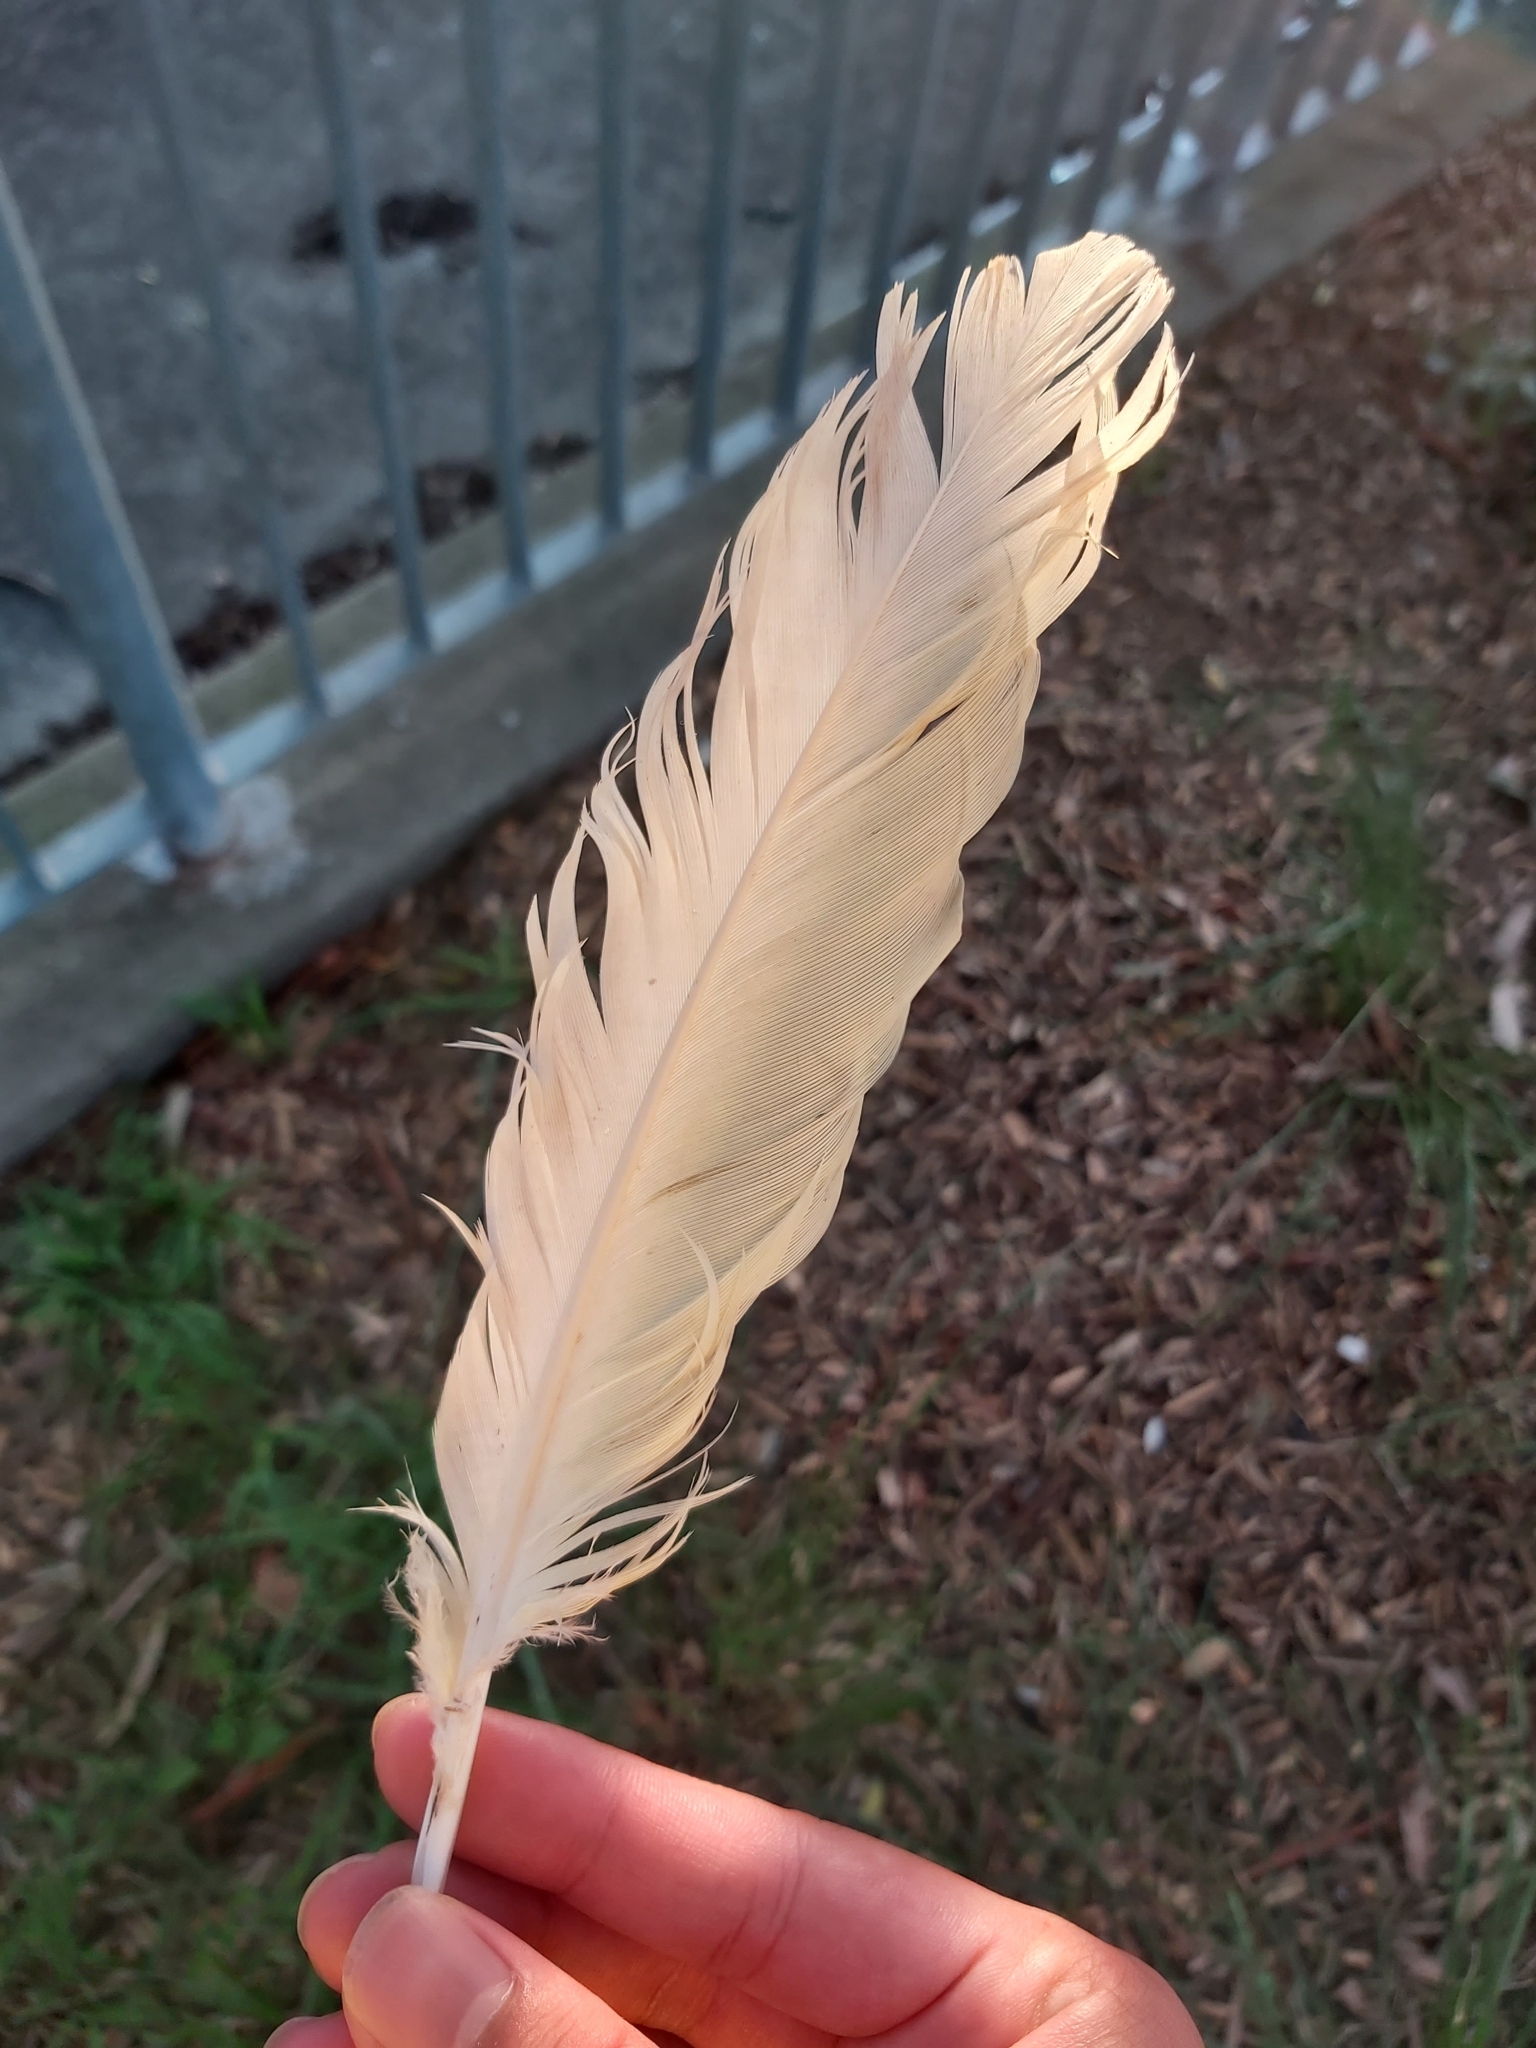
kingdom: Animalia
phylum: Chordata
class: Aves
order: Psittaciformes
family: Psittacidae
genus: Cacatua
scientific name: Cacatua galerita
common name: Sulphur-crested cockatoo
